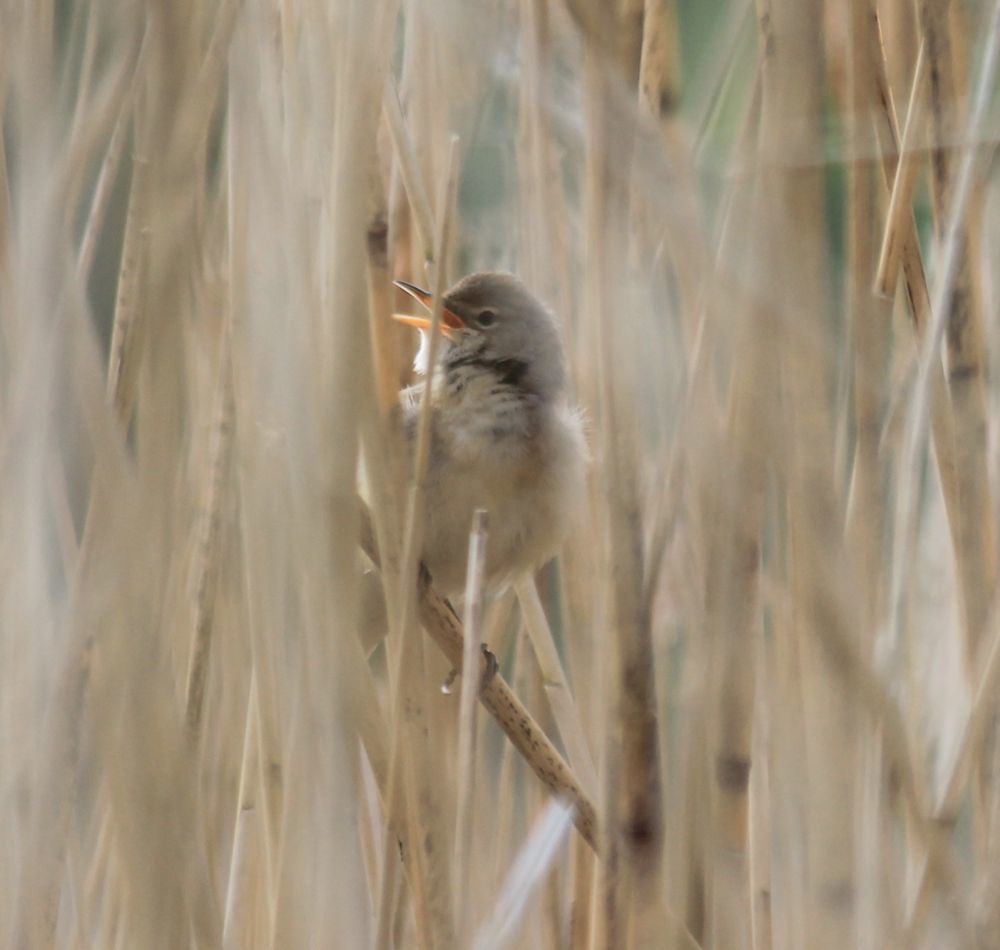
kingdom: Animalia
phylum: Chordata
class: Aves
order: Passeriformes
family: Acrocephalidae
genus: Acrocephalus
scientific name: Acrocephalus scirpaceus
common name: Eurasian reed warbler
